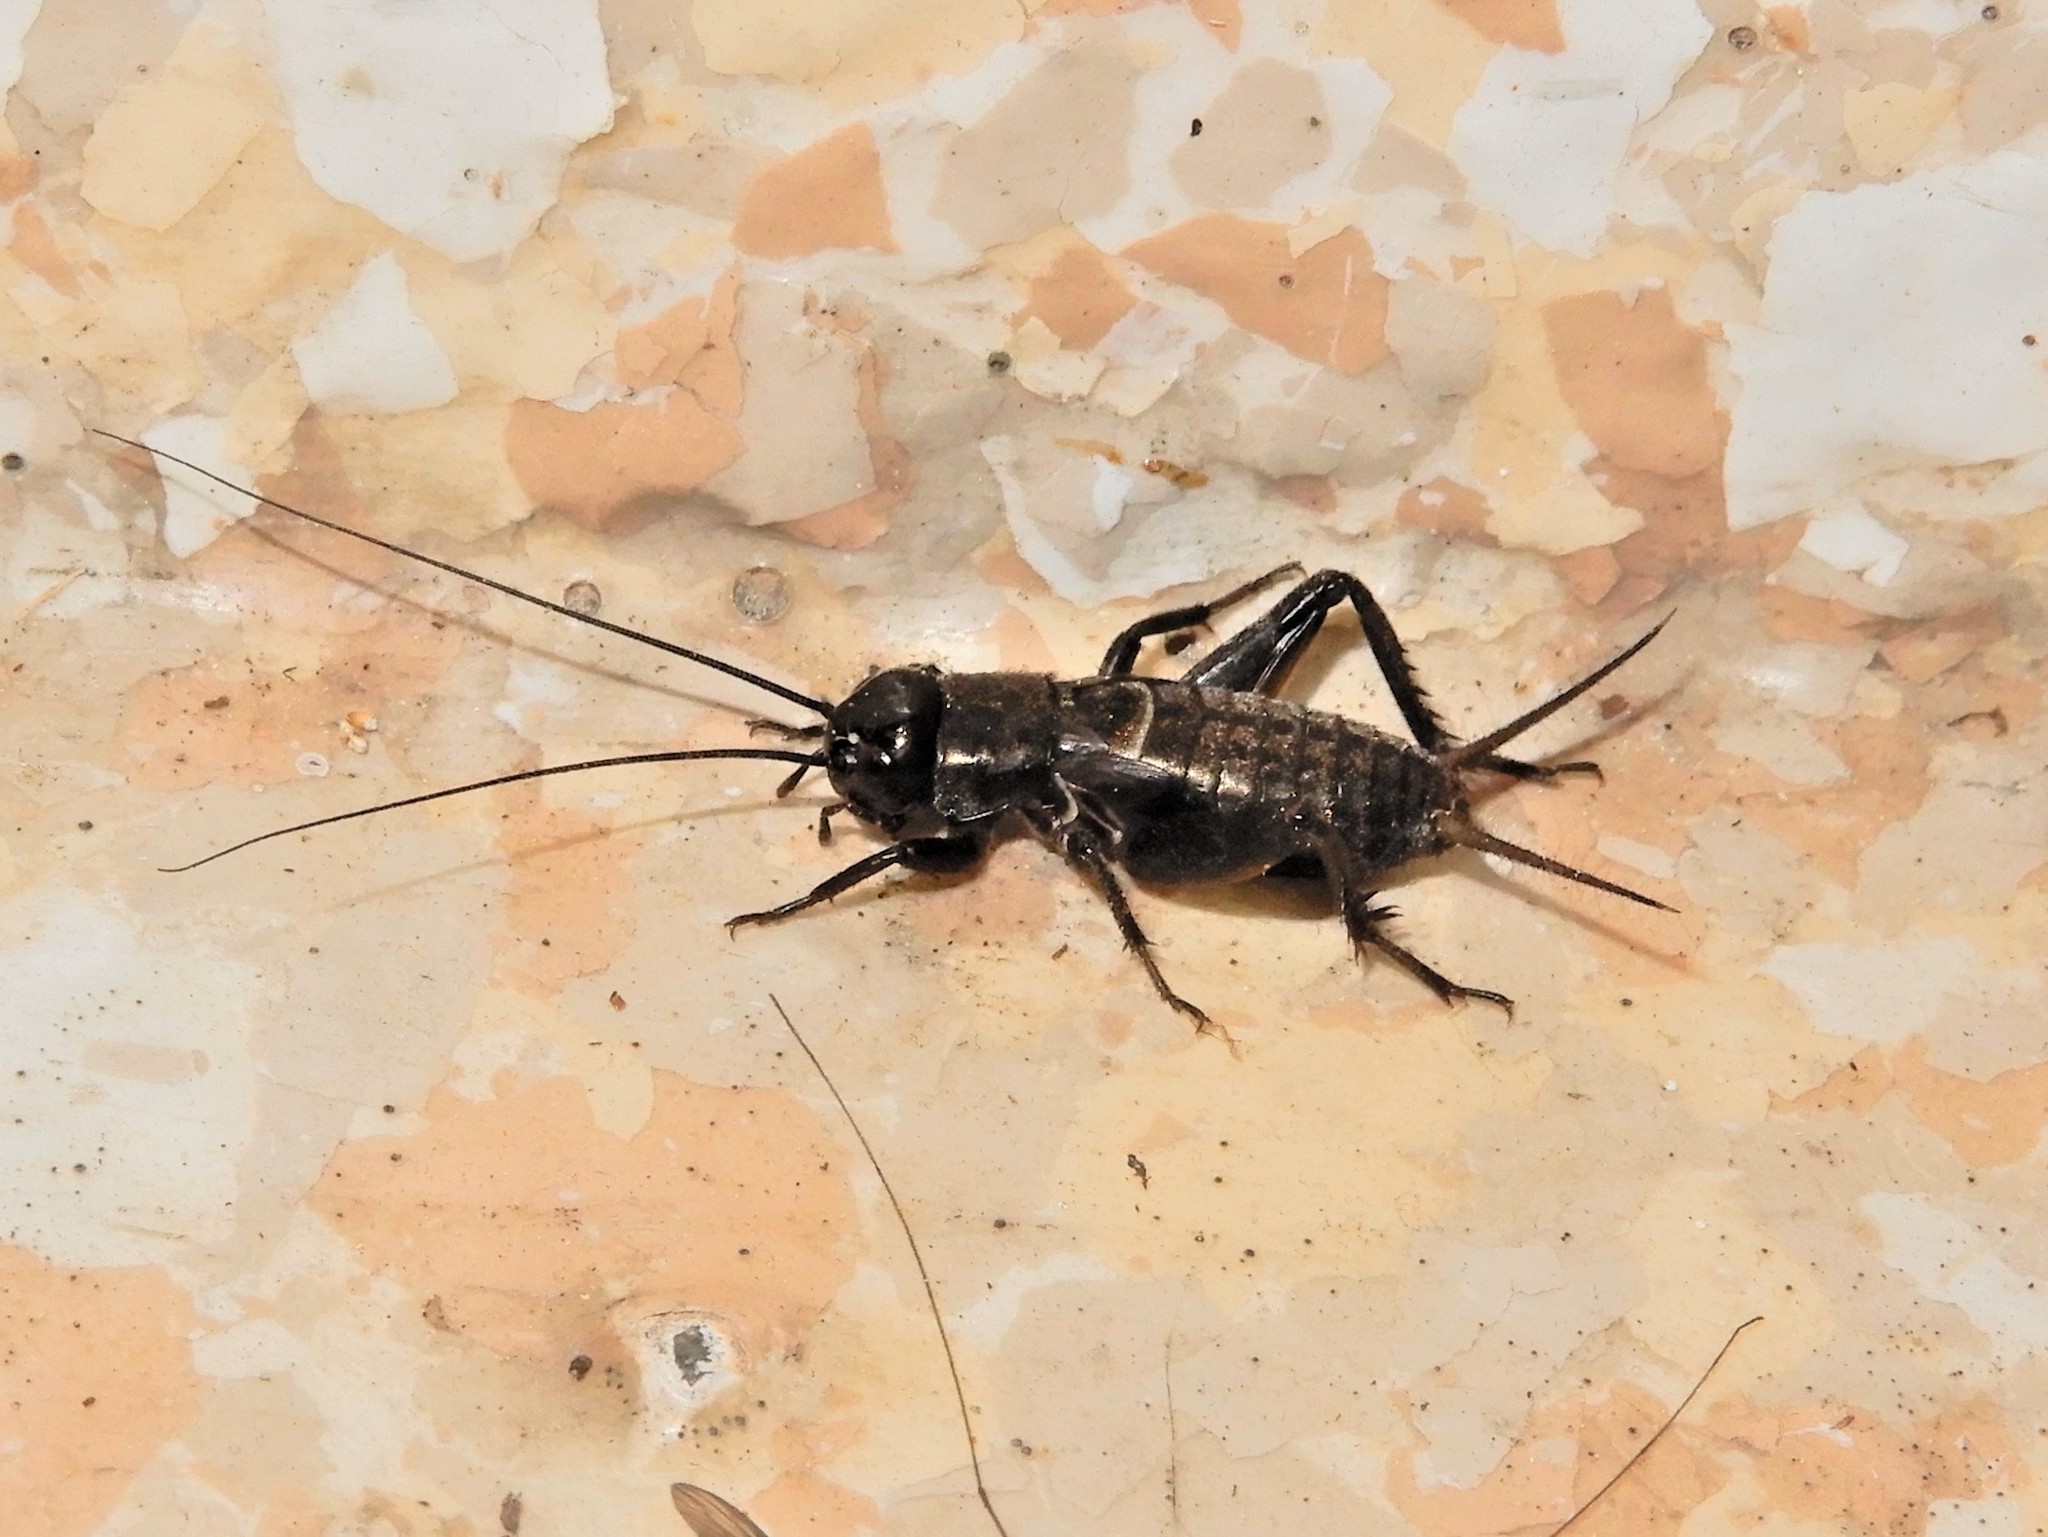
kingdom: Animalia
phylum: Arthropoda
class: Insecta
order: Orthoptera
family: Gryllidae
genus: Teleogryllus
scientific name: Teleogryllus commodus
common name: Black field cricket
